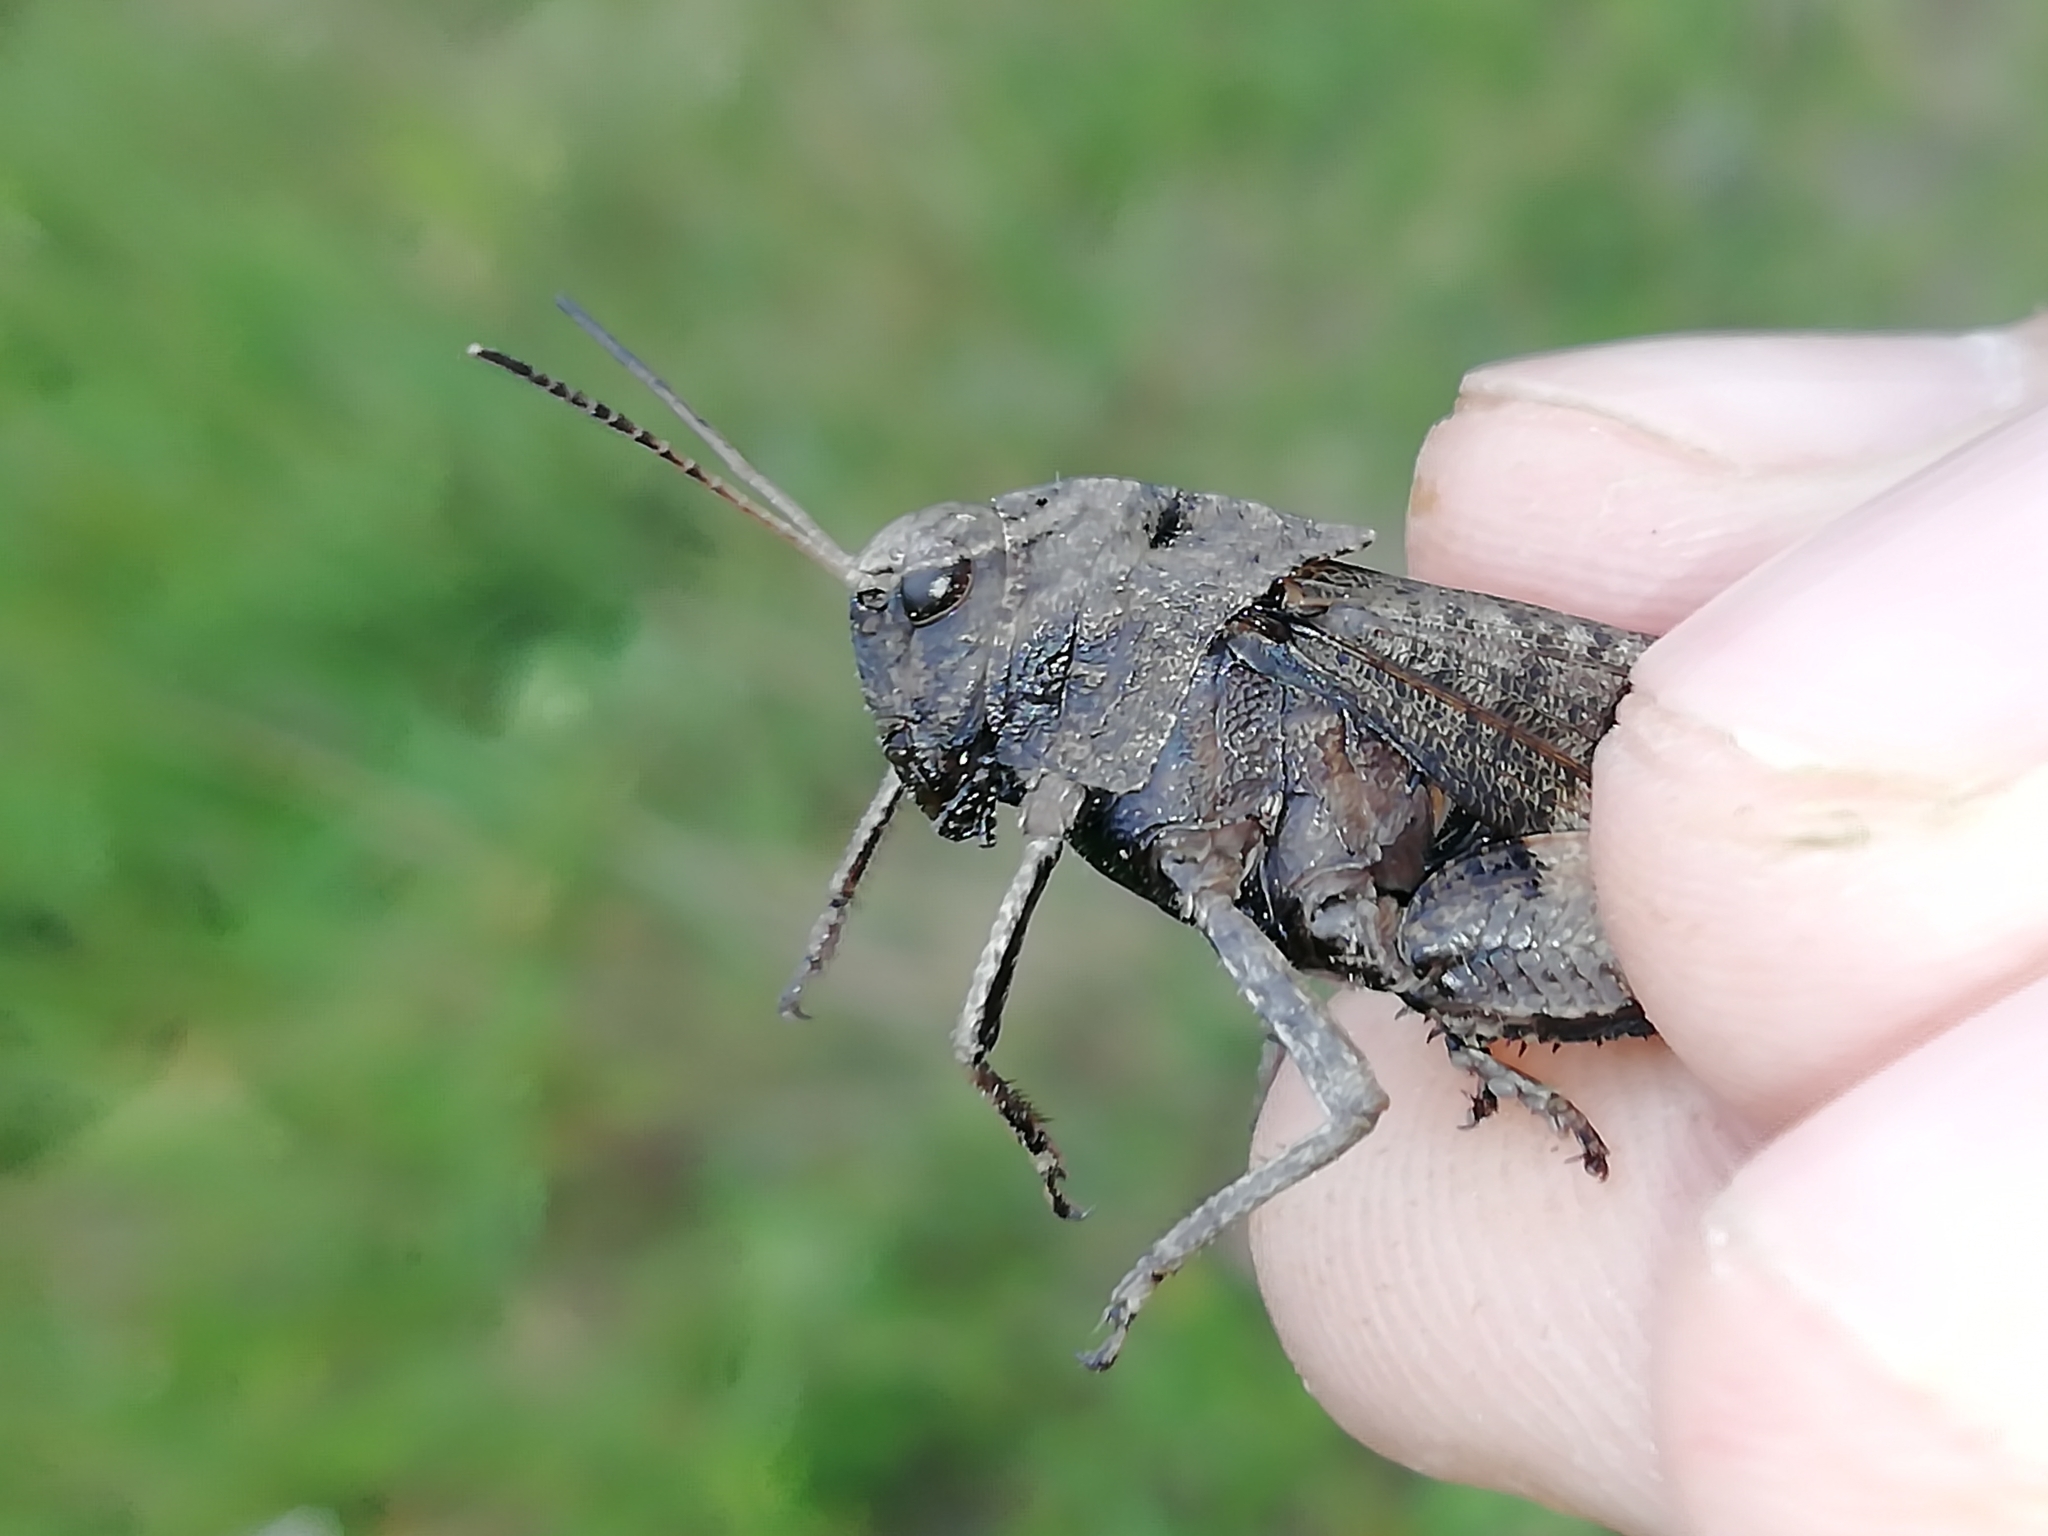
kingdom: Animalia
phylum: Arthropoda
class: Insecta
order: Orthoptera
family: Acrididae
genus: Psophus
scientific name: Psophus stridulus
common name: Rattle grasshopper
